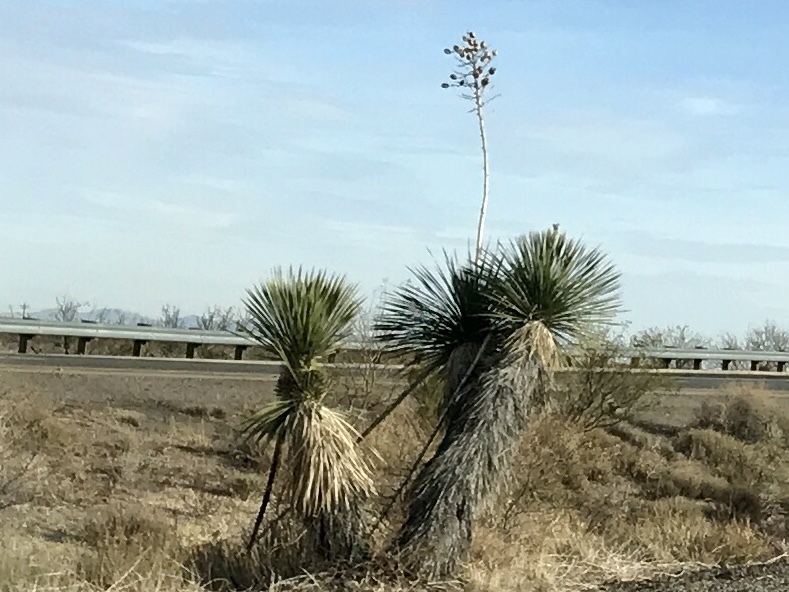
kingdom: Plantae
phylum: Tracheophyta
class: Liliopsida
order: Asparagales
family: Asparagaceae
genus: Yucca
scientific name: Yucca elata
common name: Palmella
